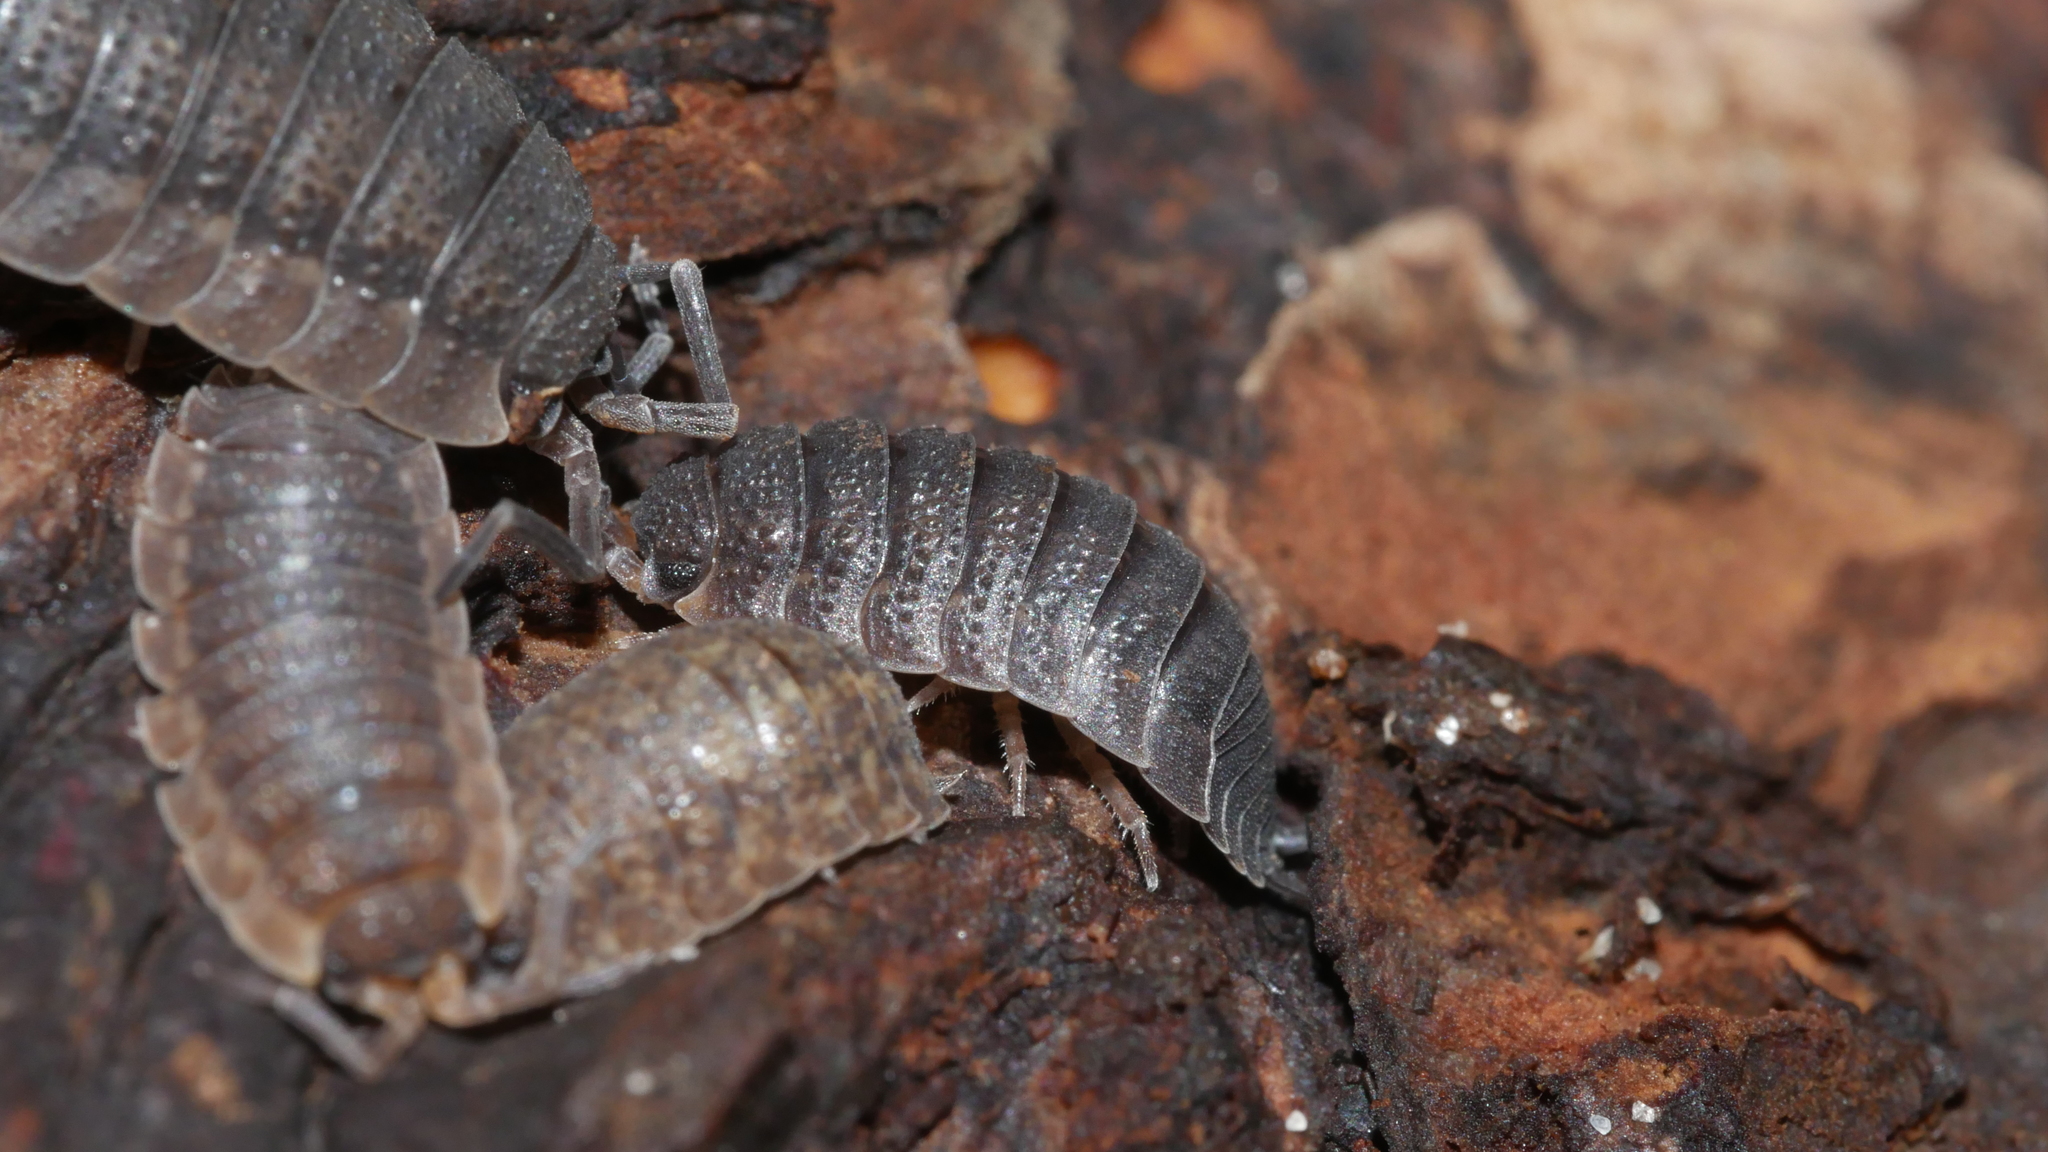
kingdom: Animalia
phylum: Arthropoda
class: Malacostraca
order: Isopoda
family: Porcellionidae
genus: Porcellio
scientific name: Porcellio scaber
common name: Common rough woodlouse
